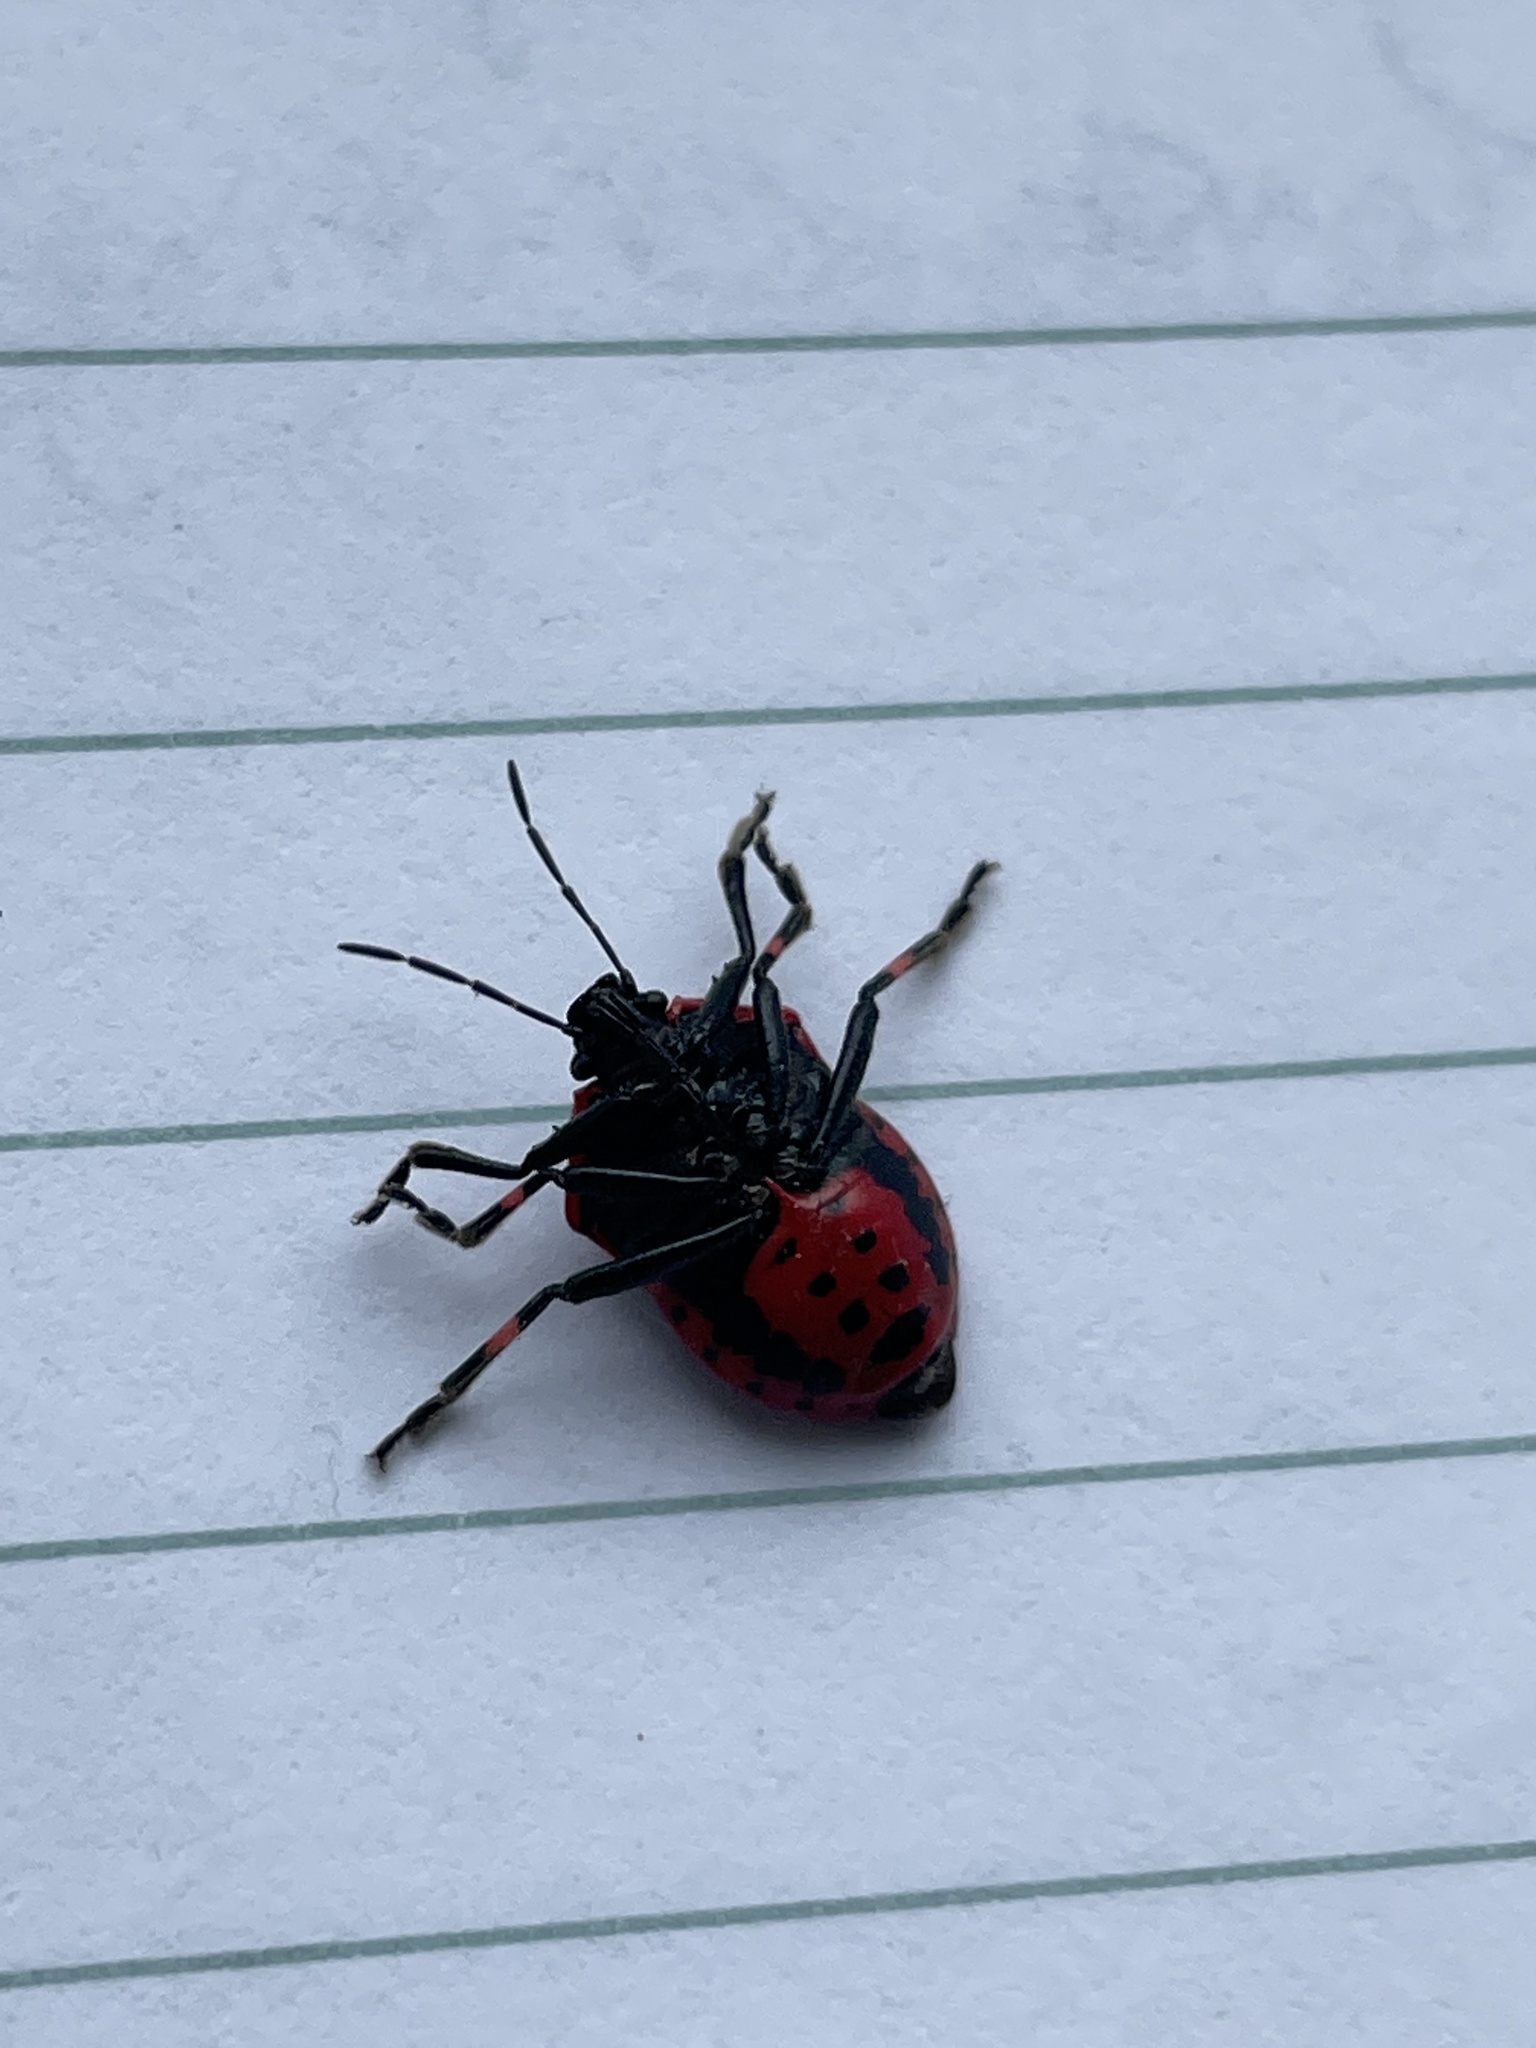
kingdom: Animalia
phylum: Arthropoda
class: Insecta
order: Hemiptera
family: Pentatomidae
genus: Perillus
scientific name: Perillus bioculatus
